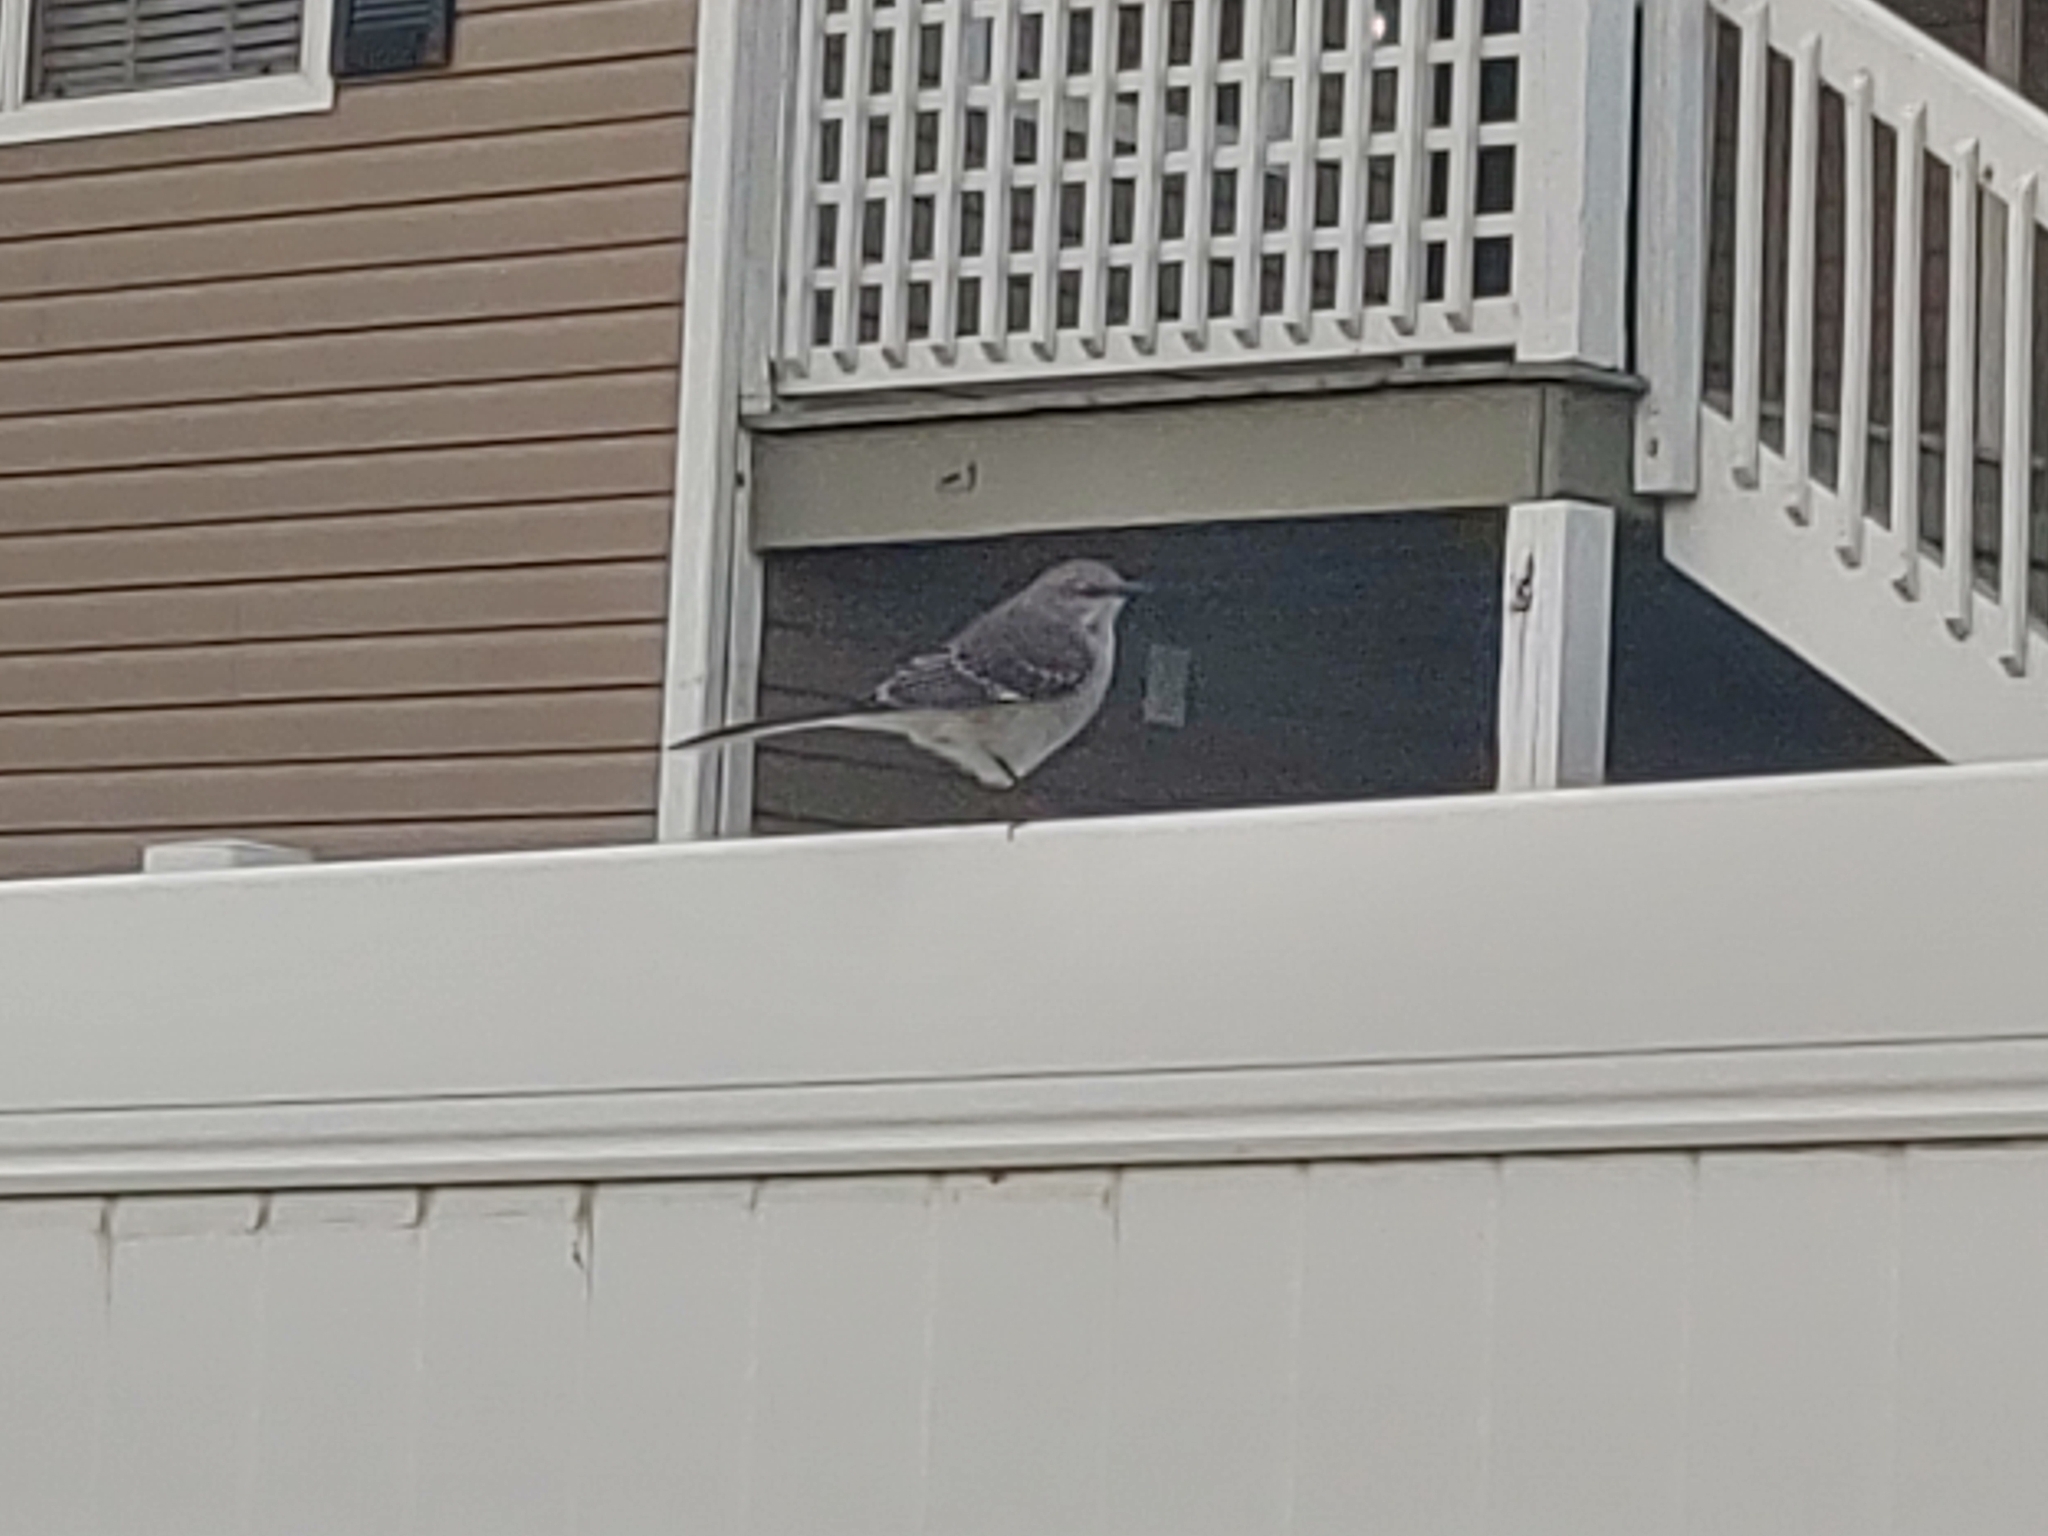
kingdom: Animalia
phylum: Chordata
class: Aves
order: Passeriformes
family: Mimidae
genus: Mimus
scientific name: Mimus polyglottos
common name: Northern mockingbird
